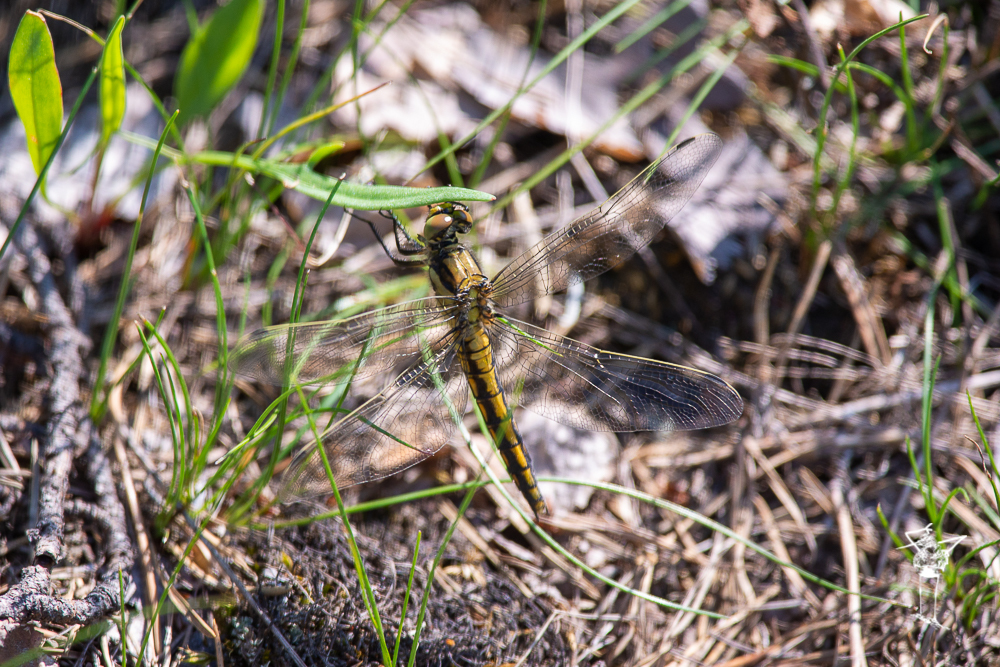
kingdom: Animalia
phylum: Arthropoda
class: Insecta
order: Odonata
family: Libellulidae
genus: Orthetrum
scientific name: Orthetrum cancellatum
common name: Black-tailed skimmer
